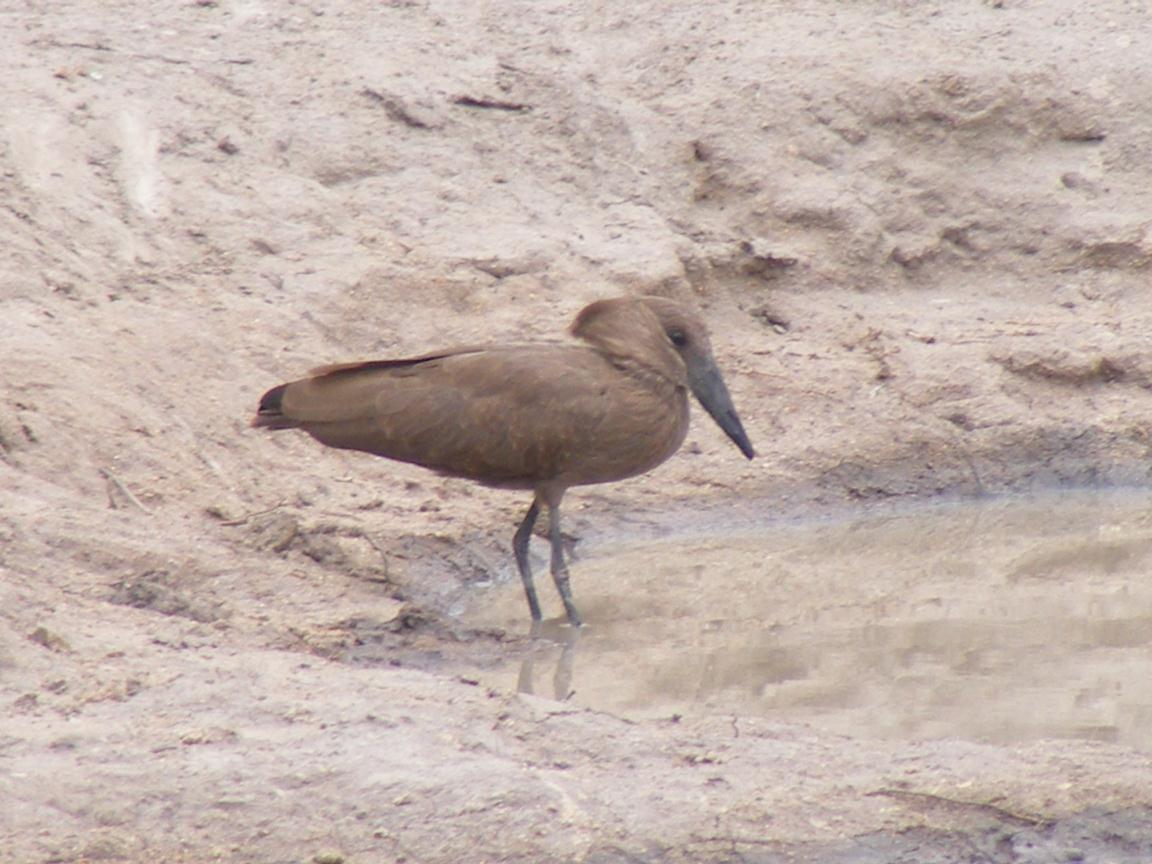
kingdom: Animalia
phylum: Chordata
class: Aves
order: Pelecaniformes
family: Scopidae
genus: Scopus
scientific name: Scopus umbretta
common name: Hamerkop
